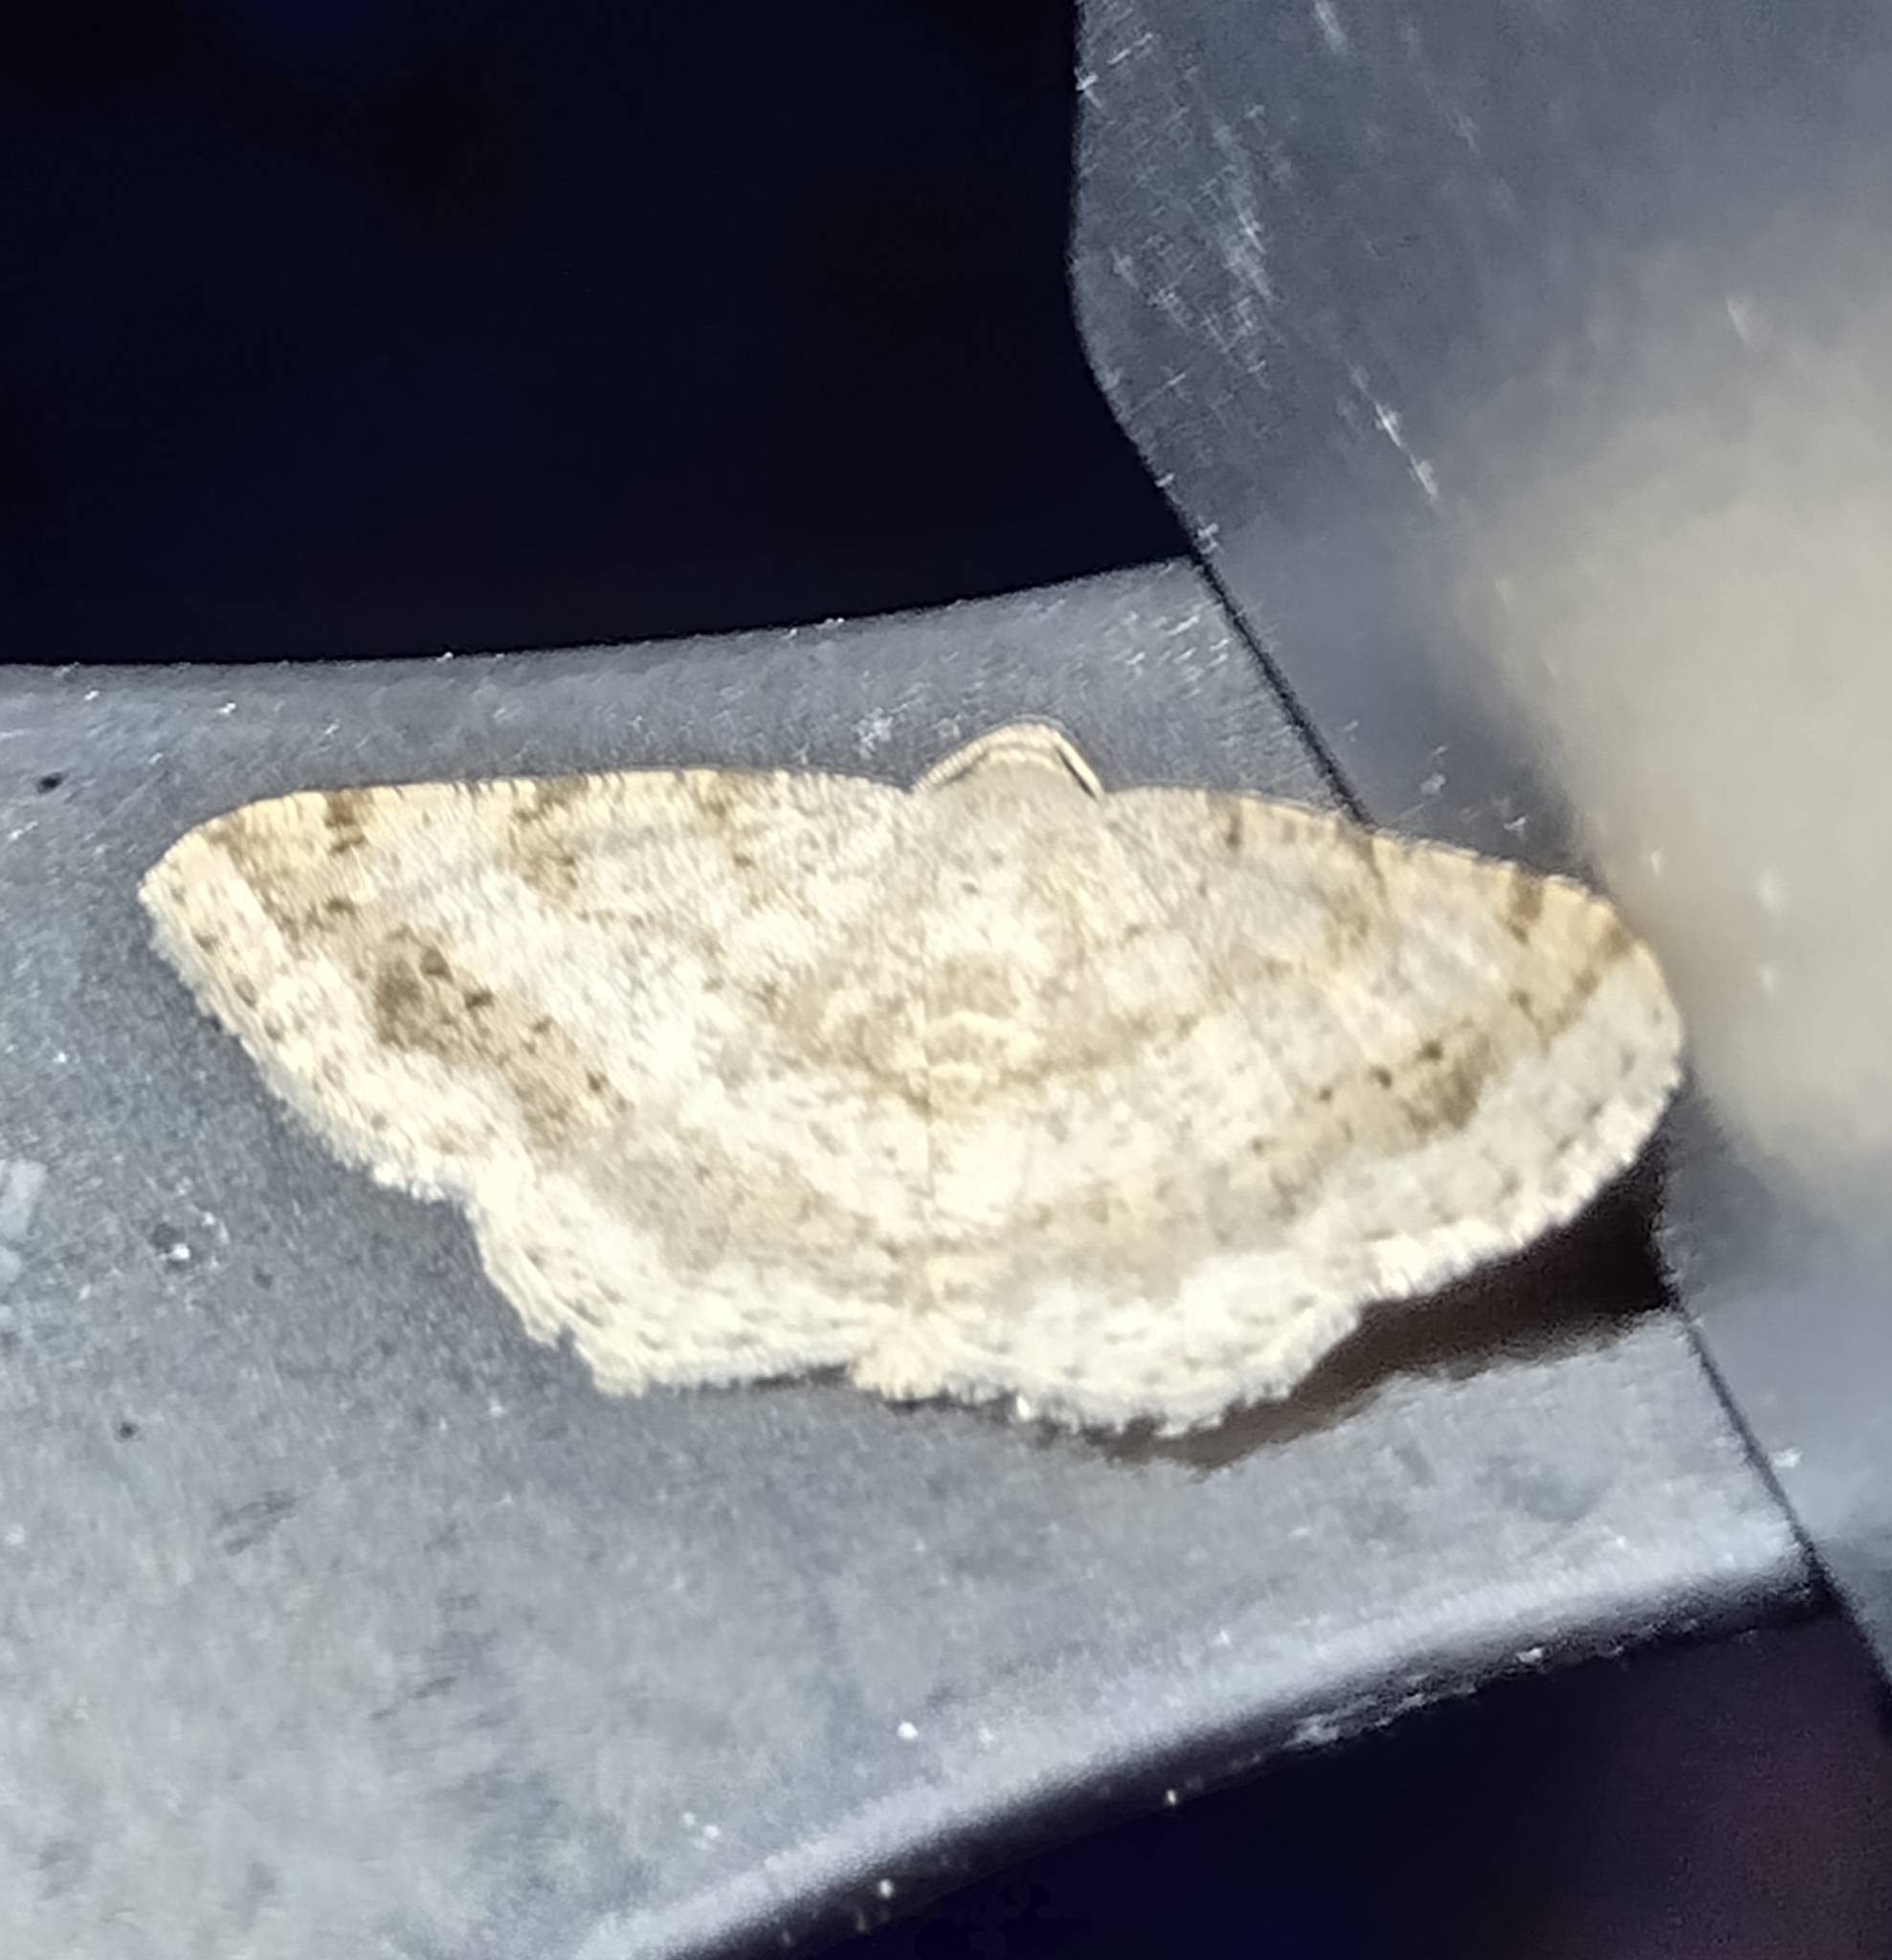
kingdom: Animalia
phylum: Arthropoda
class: Insecta
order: Lepidoptera
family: Geometridae
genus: Digrammia
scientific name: Digrammia ocellinata
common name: Faint-spotted angle
